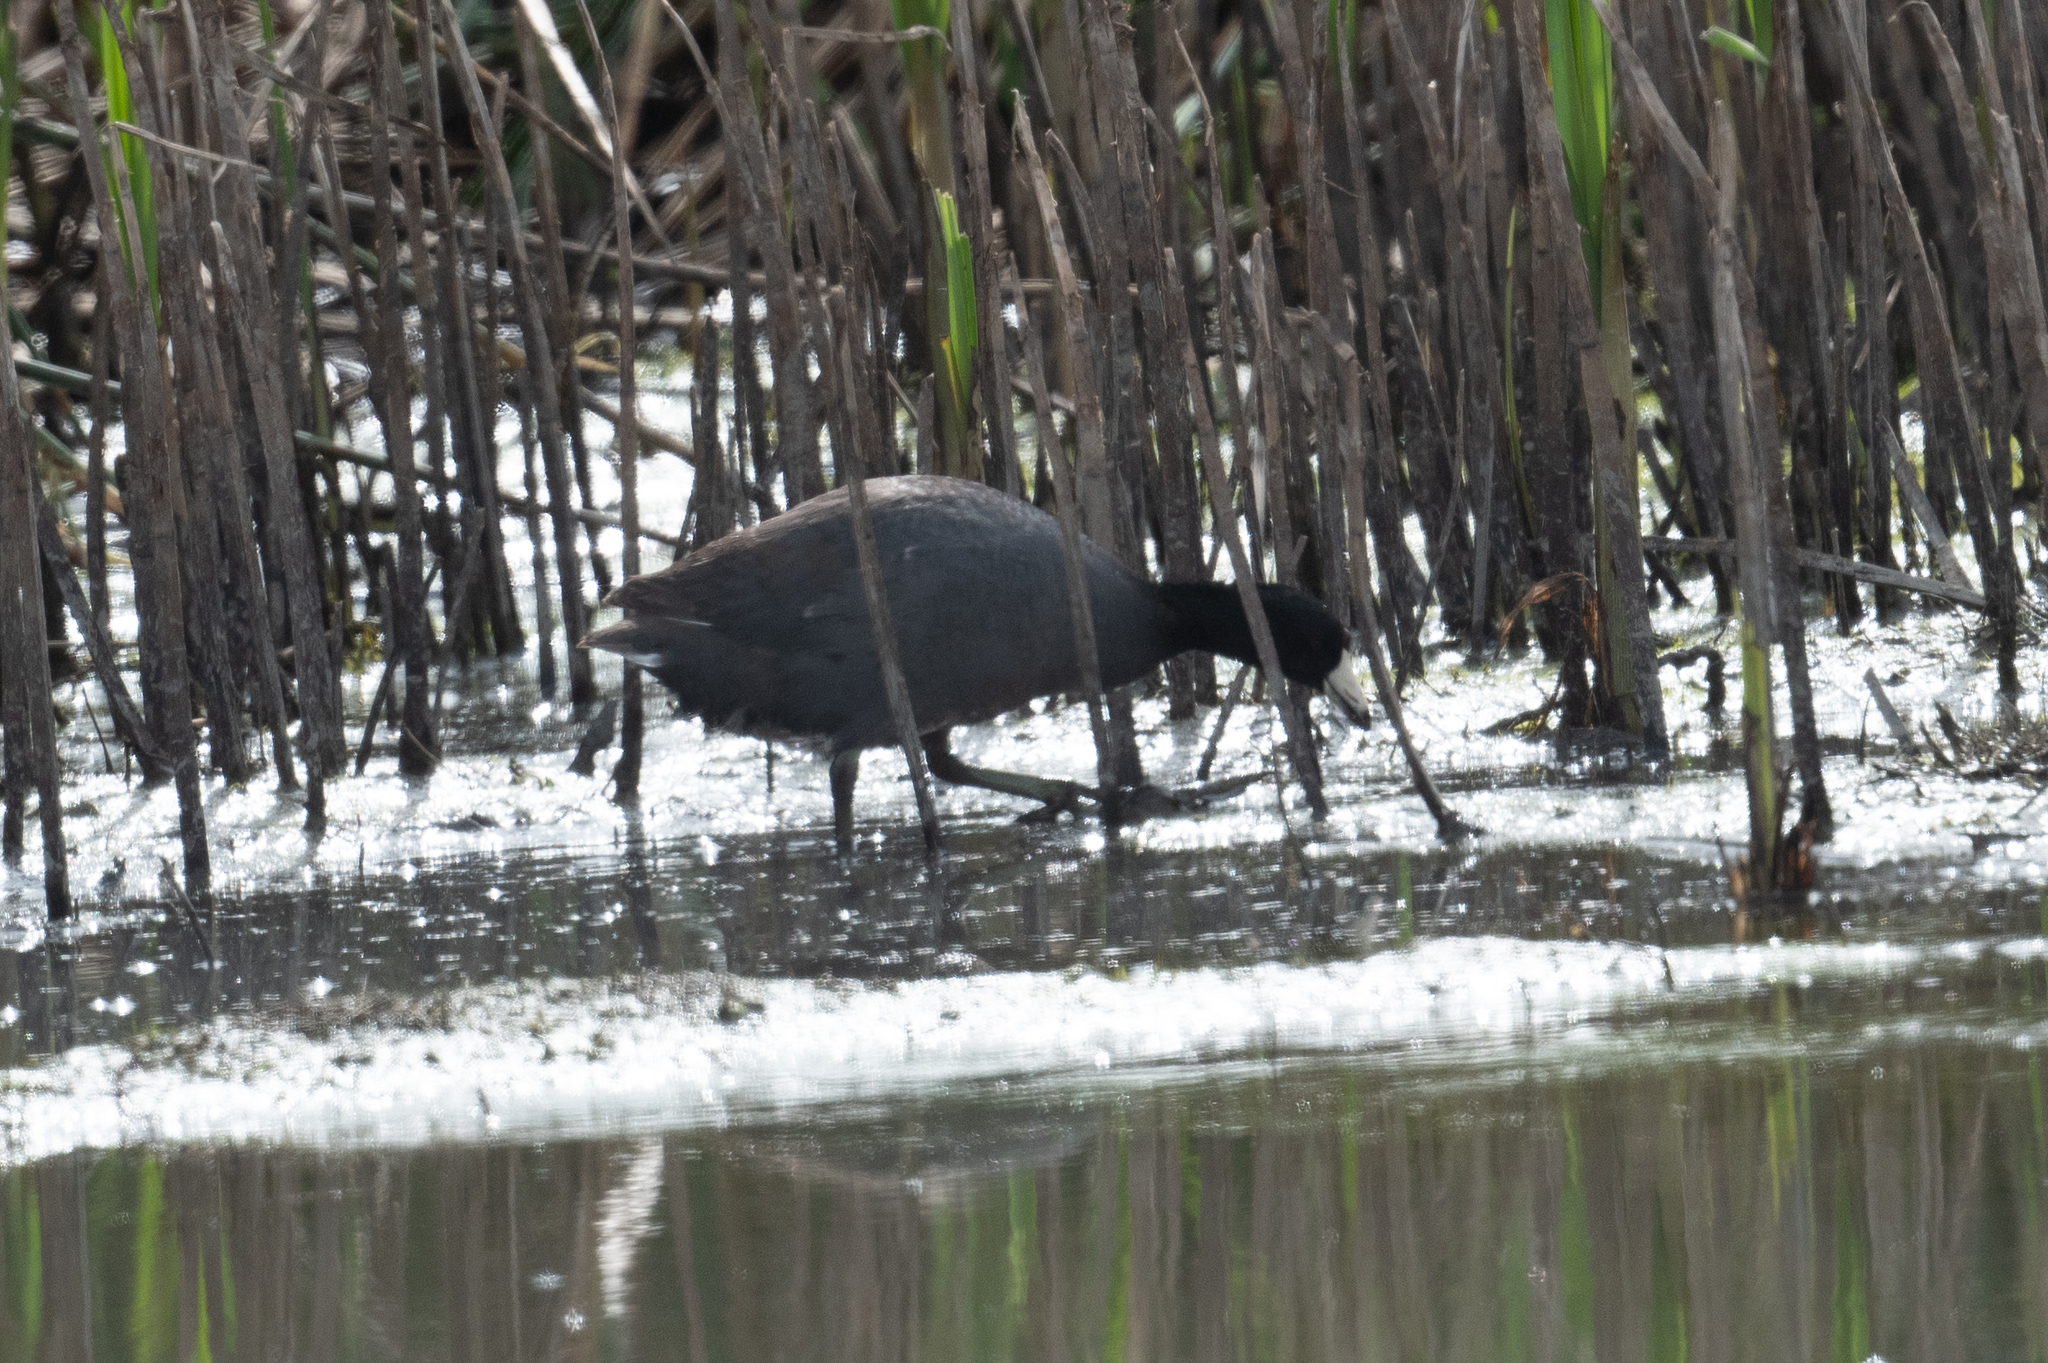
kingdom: Animalia
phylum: Chordata
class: Aves
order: Gruiformes
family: Rallidae
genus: Fulica
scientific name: Fulica americana
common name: American coot
